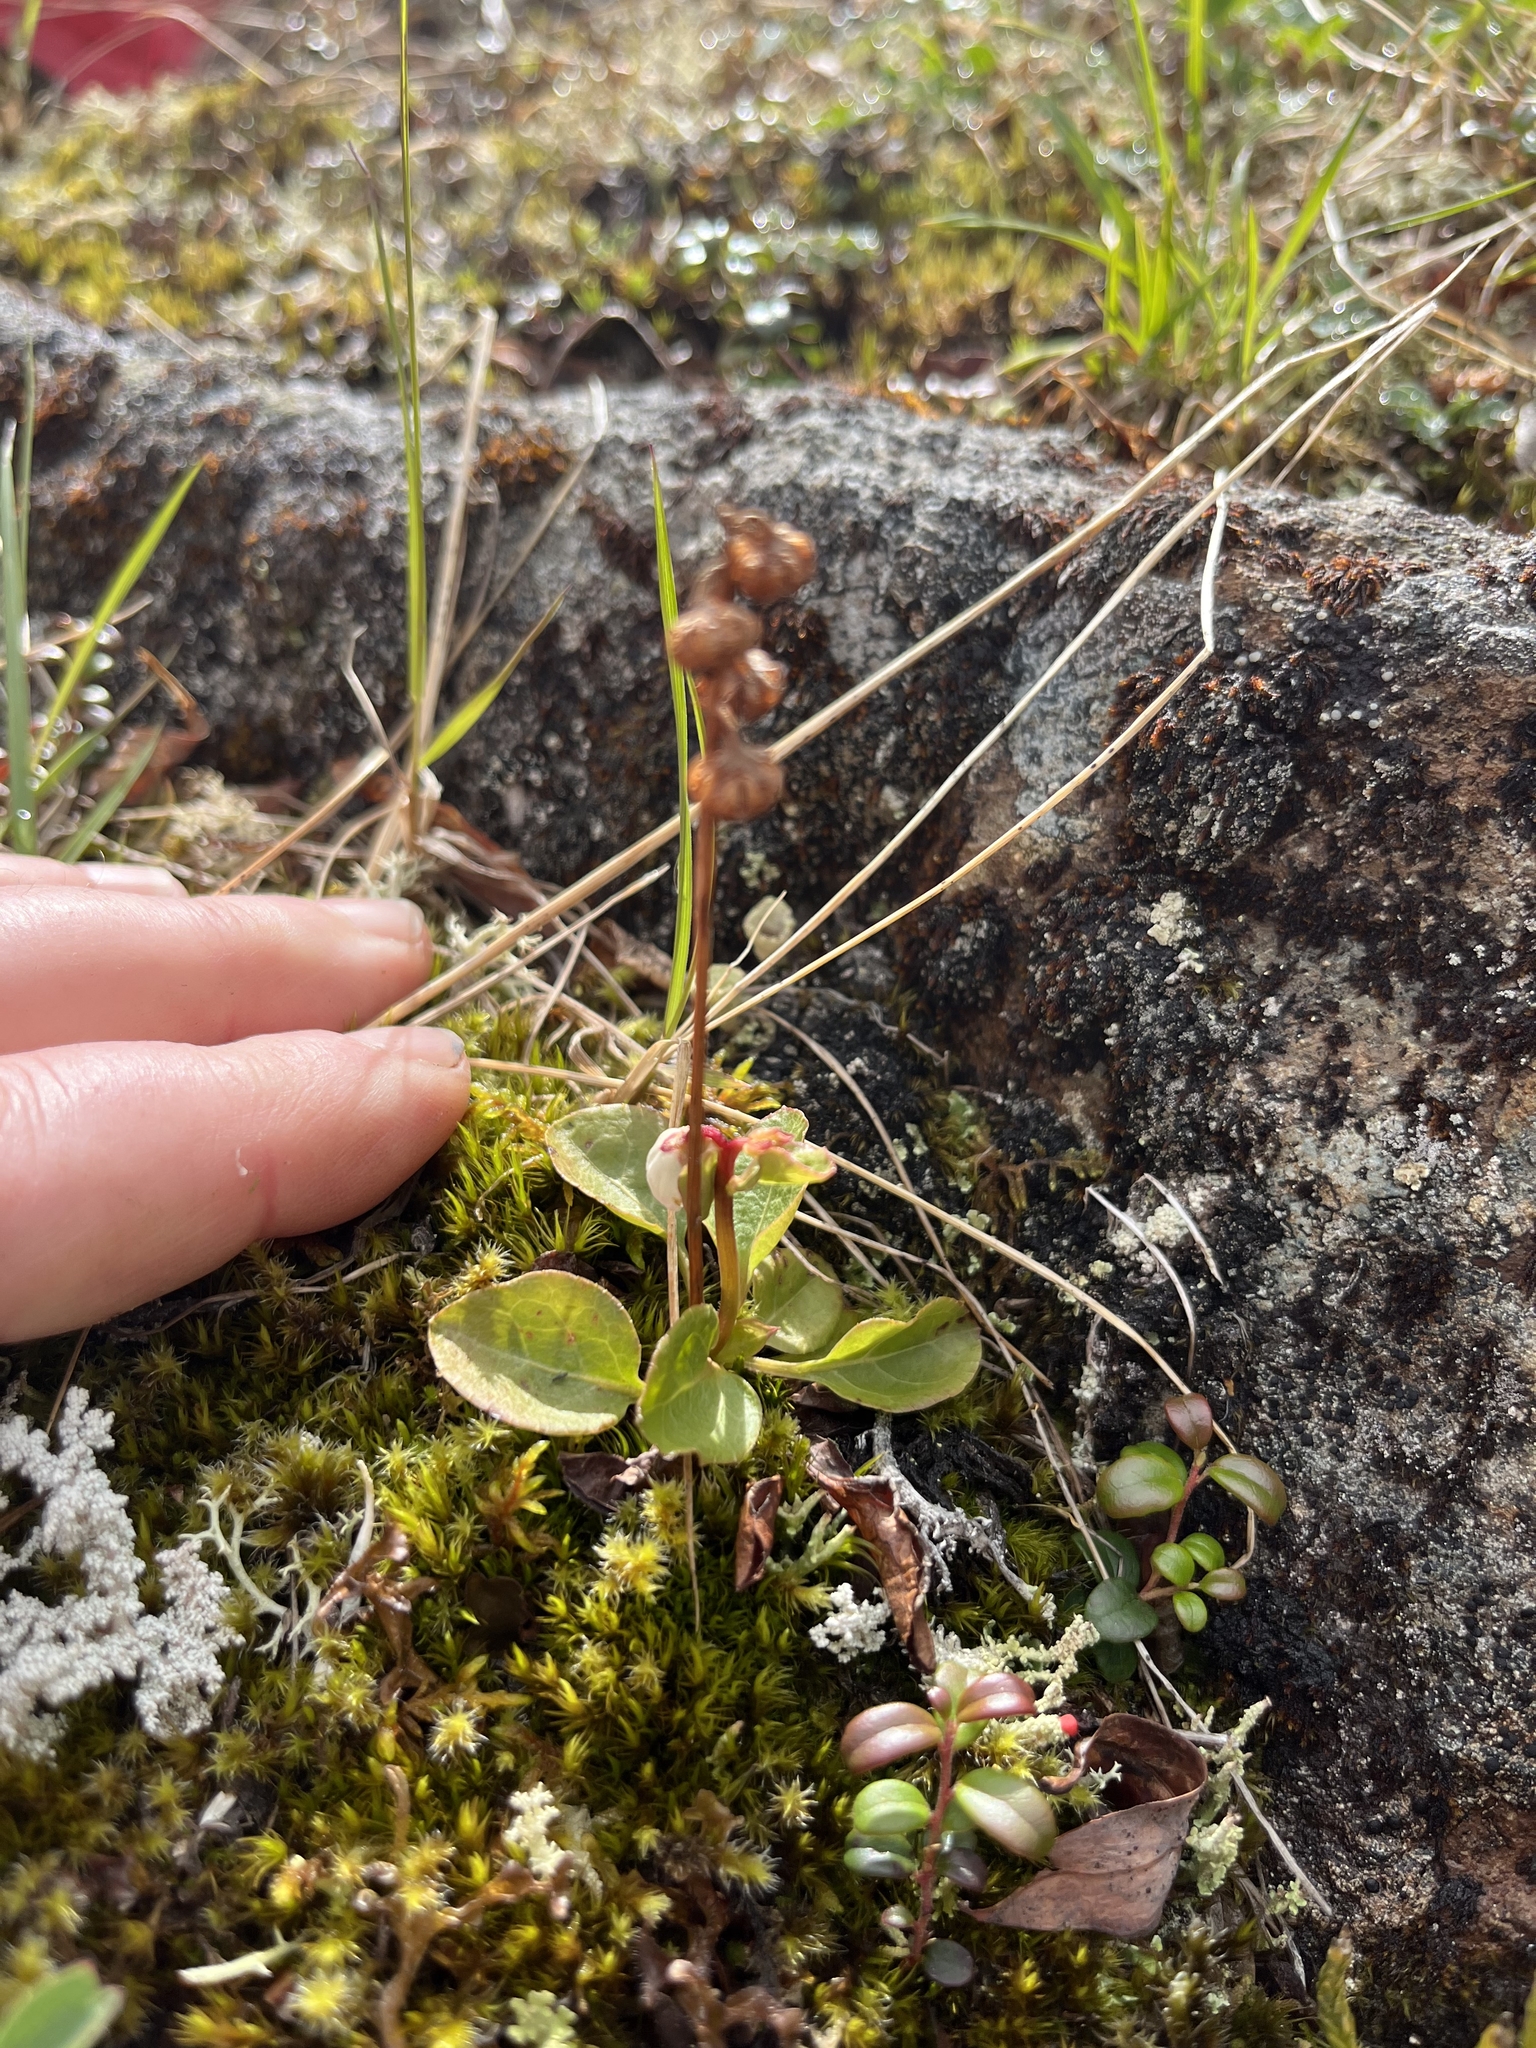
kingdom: Plantae
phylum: Tracheophyta
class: Magnoliopsida
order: Ericales
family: Ericaceae
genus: Pyrola
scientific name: Pyrola minor
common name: Common wintergreen
